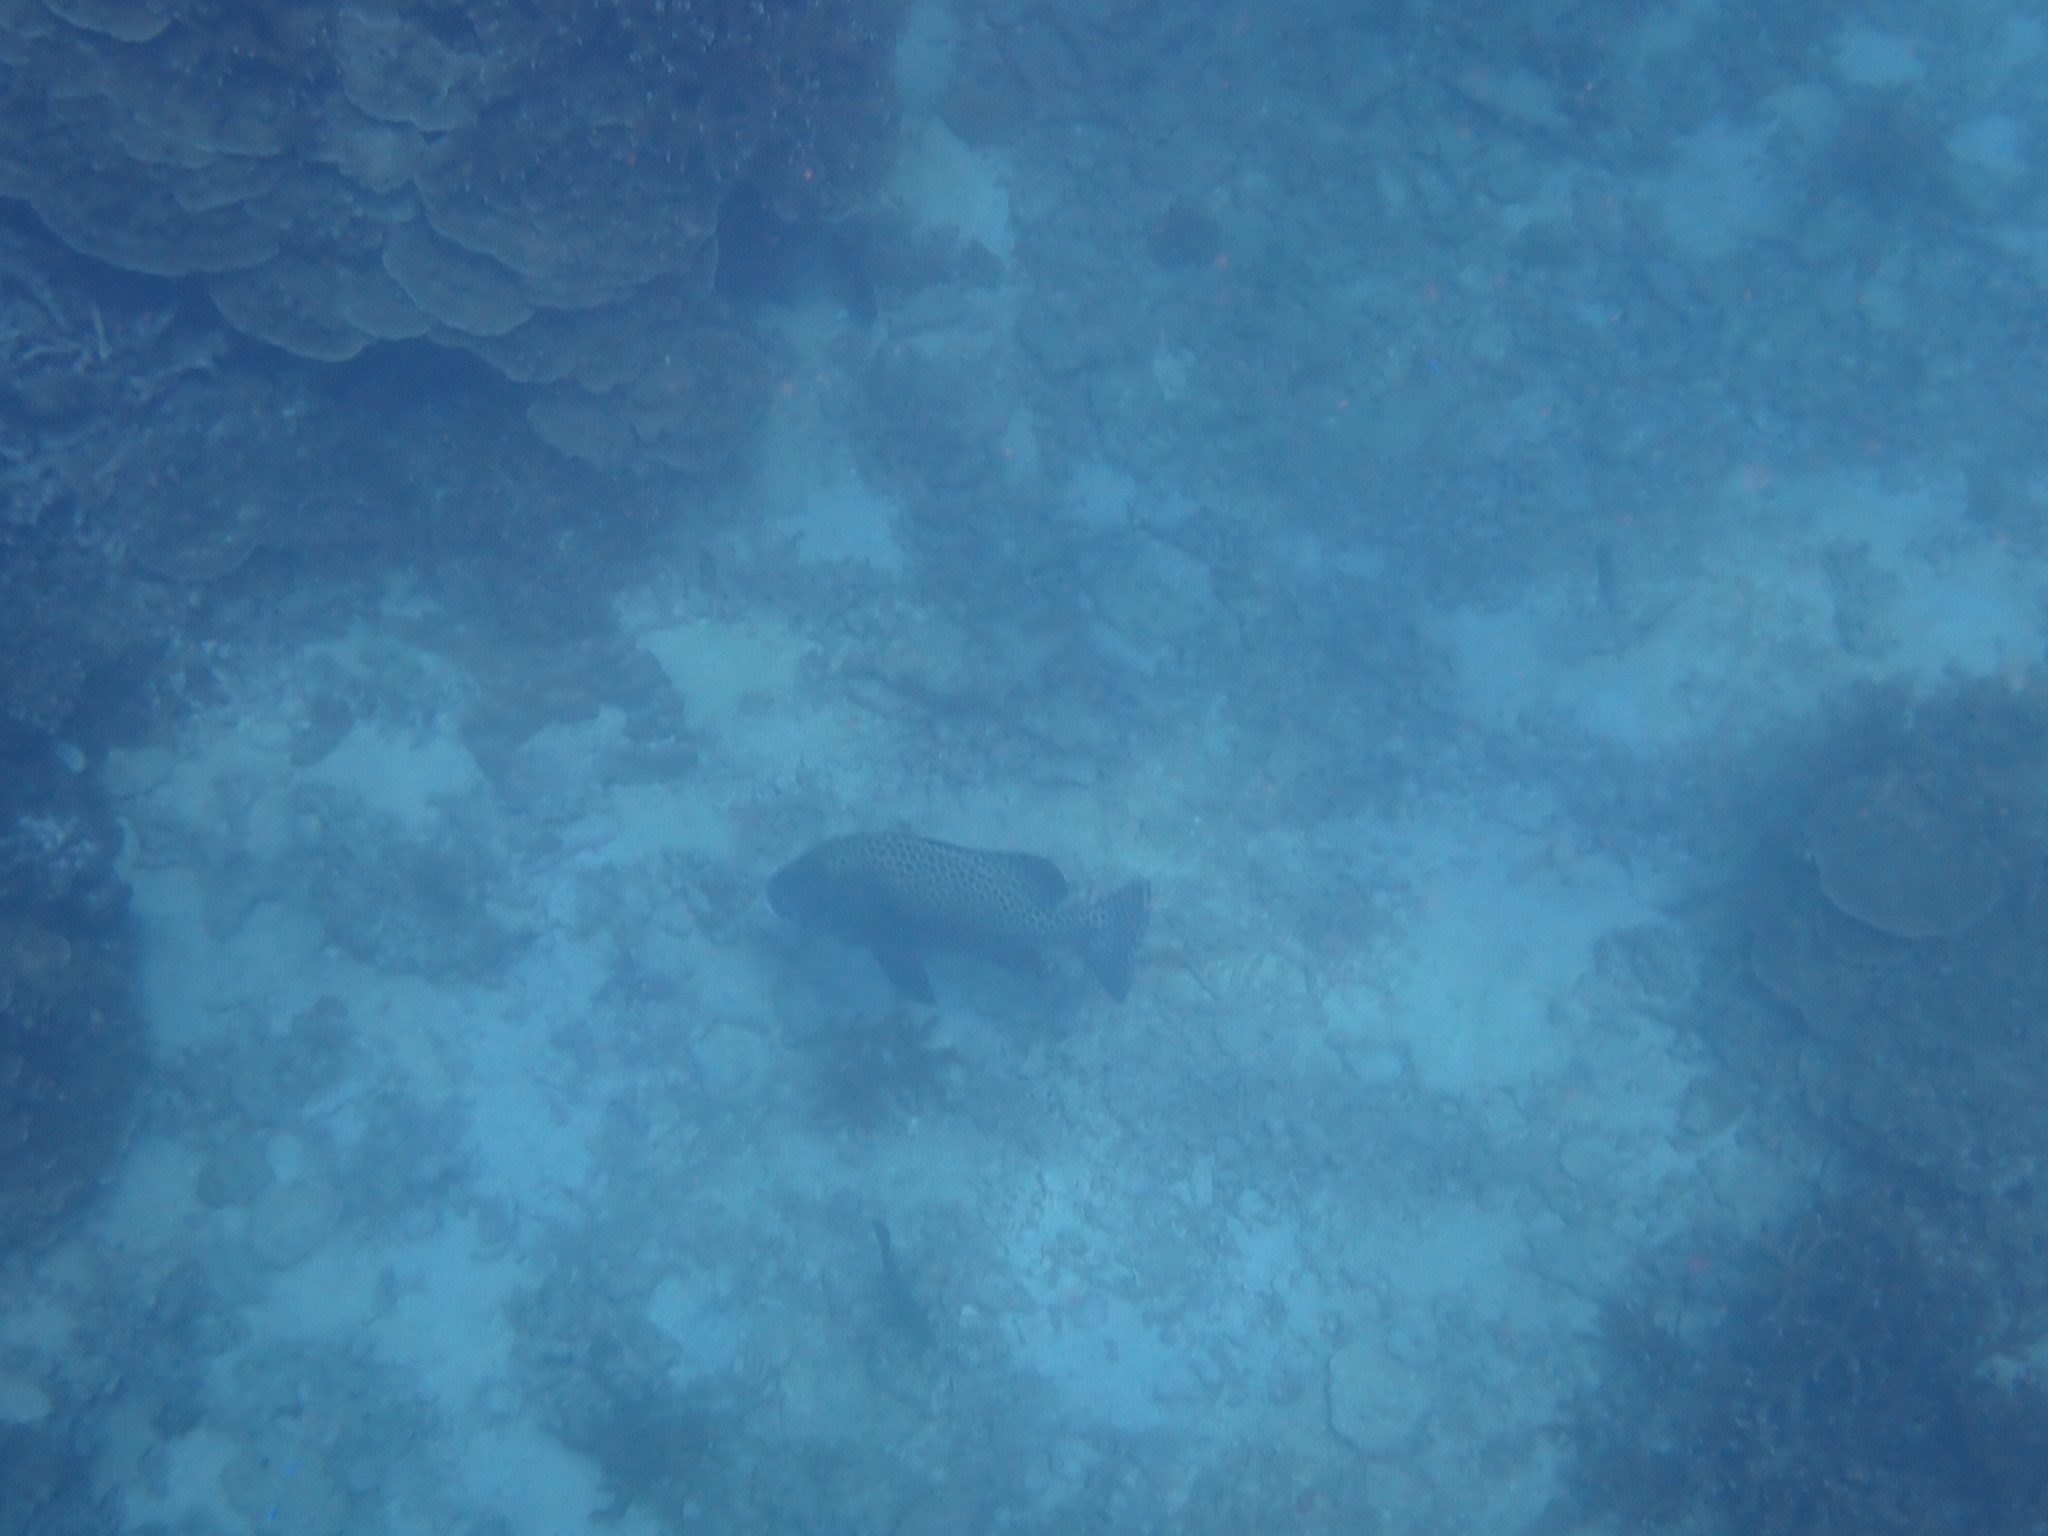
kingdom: Animalia
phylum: Chordata
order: Perciformes
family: Haemulidae
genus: Plectorhinchus
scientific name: Plectorhinchus chaetodonoides
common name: Harlequin sweetlips
